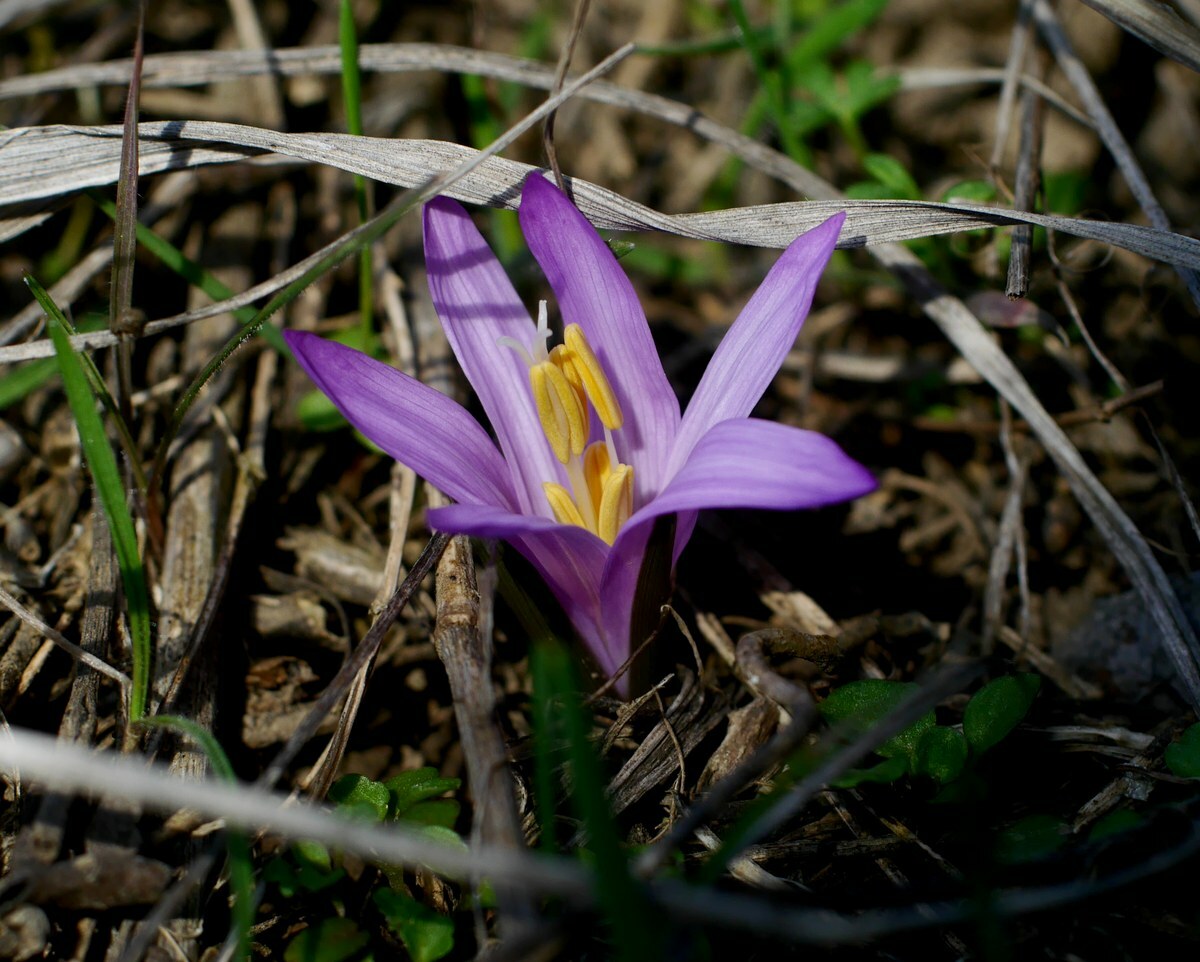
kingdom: Plantae
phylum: Tracheophyta
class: Liliopsida
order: Liliales
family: Colchicaceae
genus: Colchicum
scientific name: Colchicum bulbocodium
